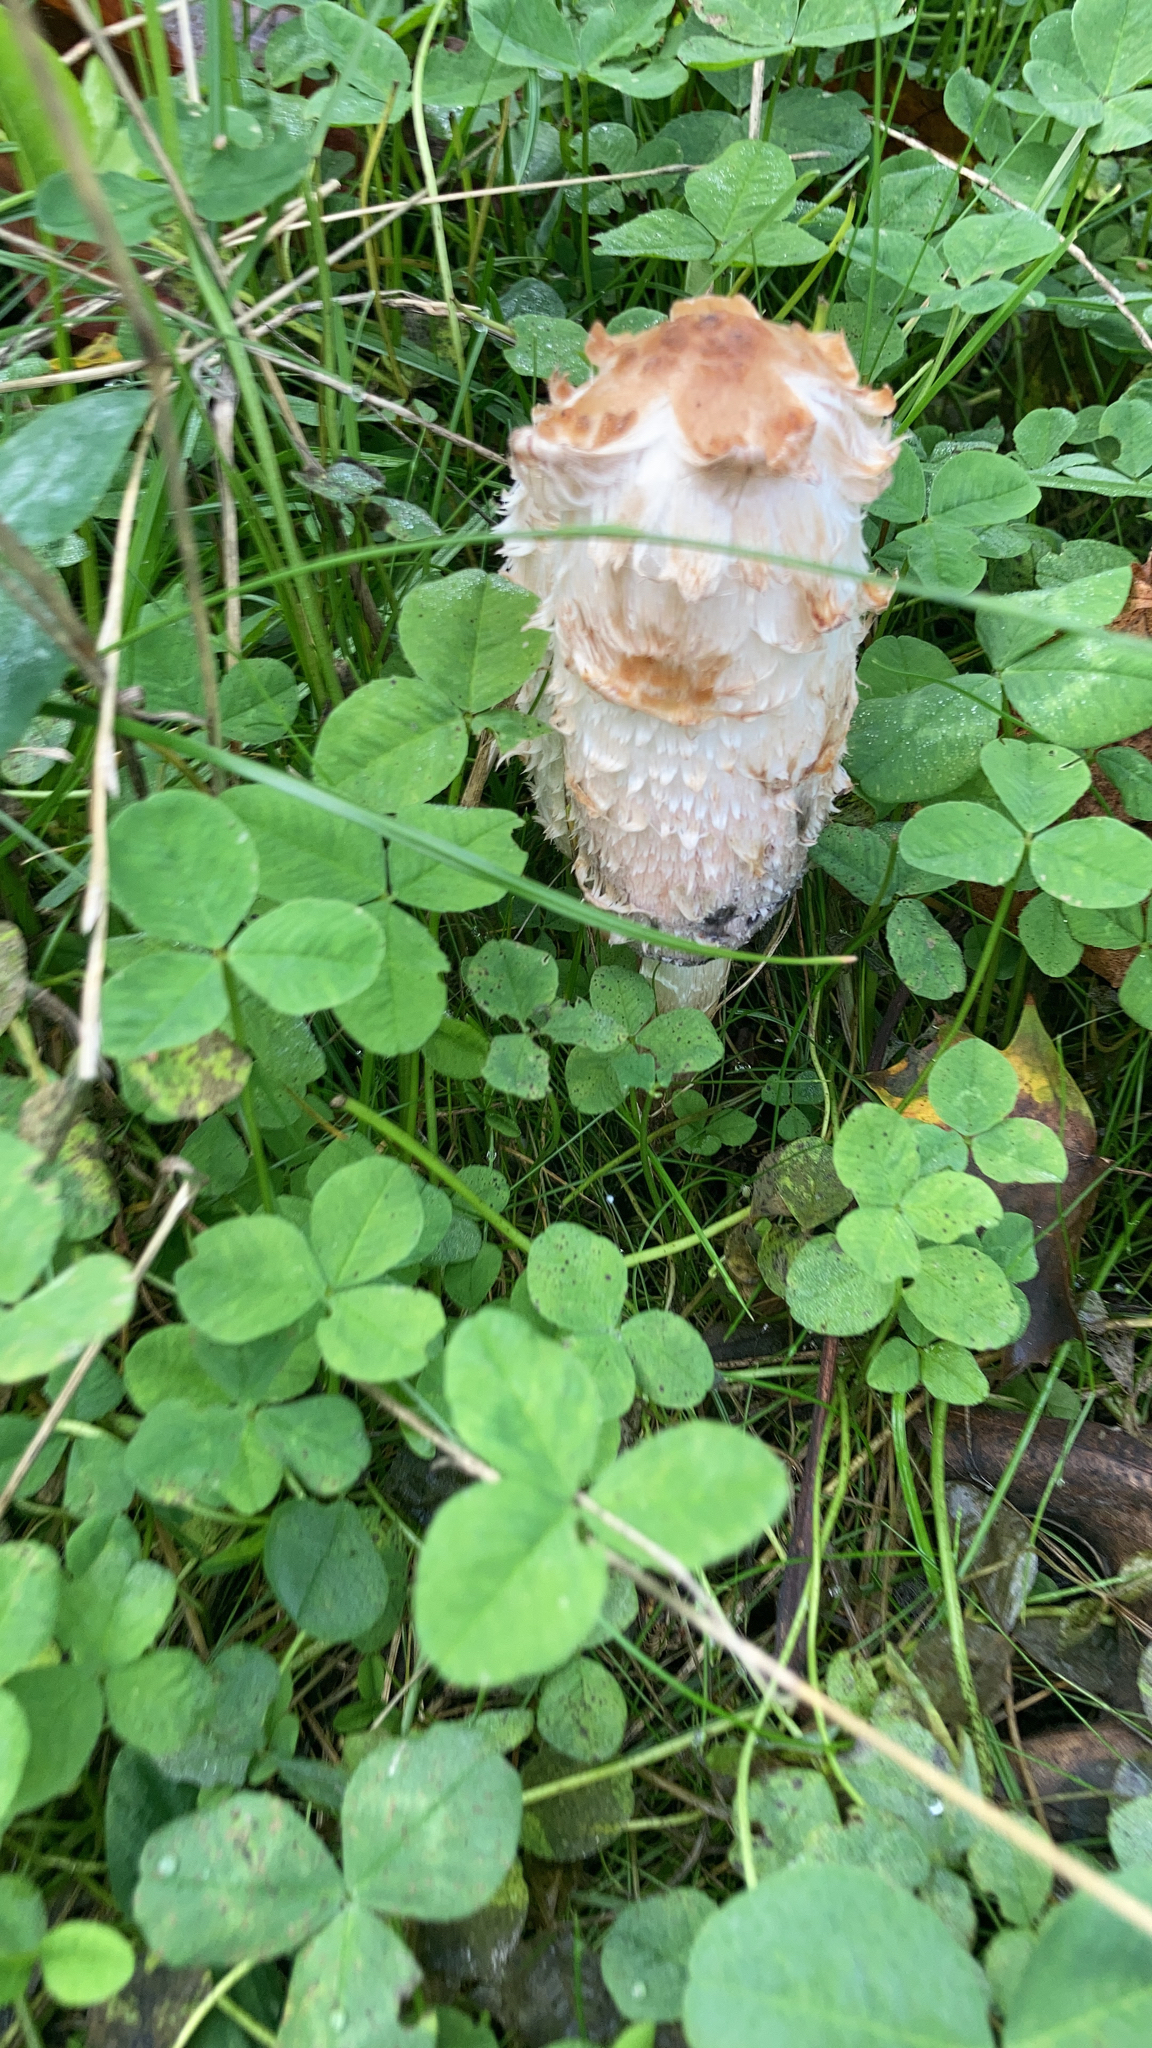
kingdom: Fungi
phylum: Basidiomycota
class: Agaricomycetes
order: Agaricales
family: Agaricaceae
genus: Coprinus
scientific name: Coprinus comatus
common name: Lawyer's wig
